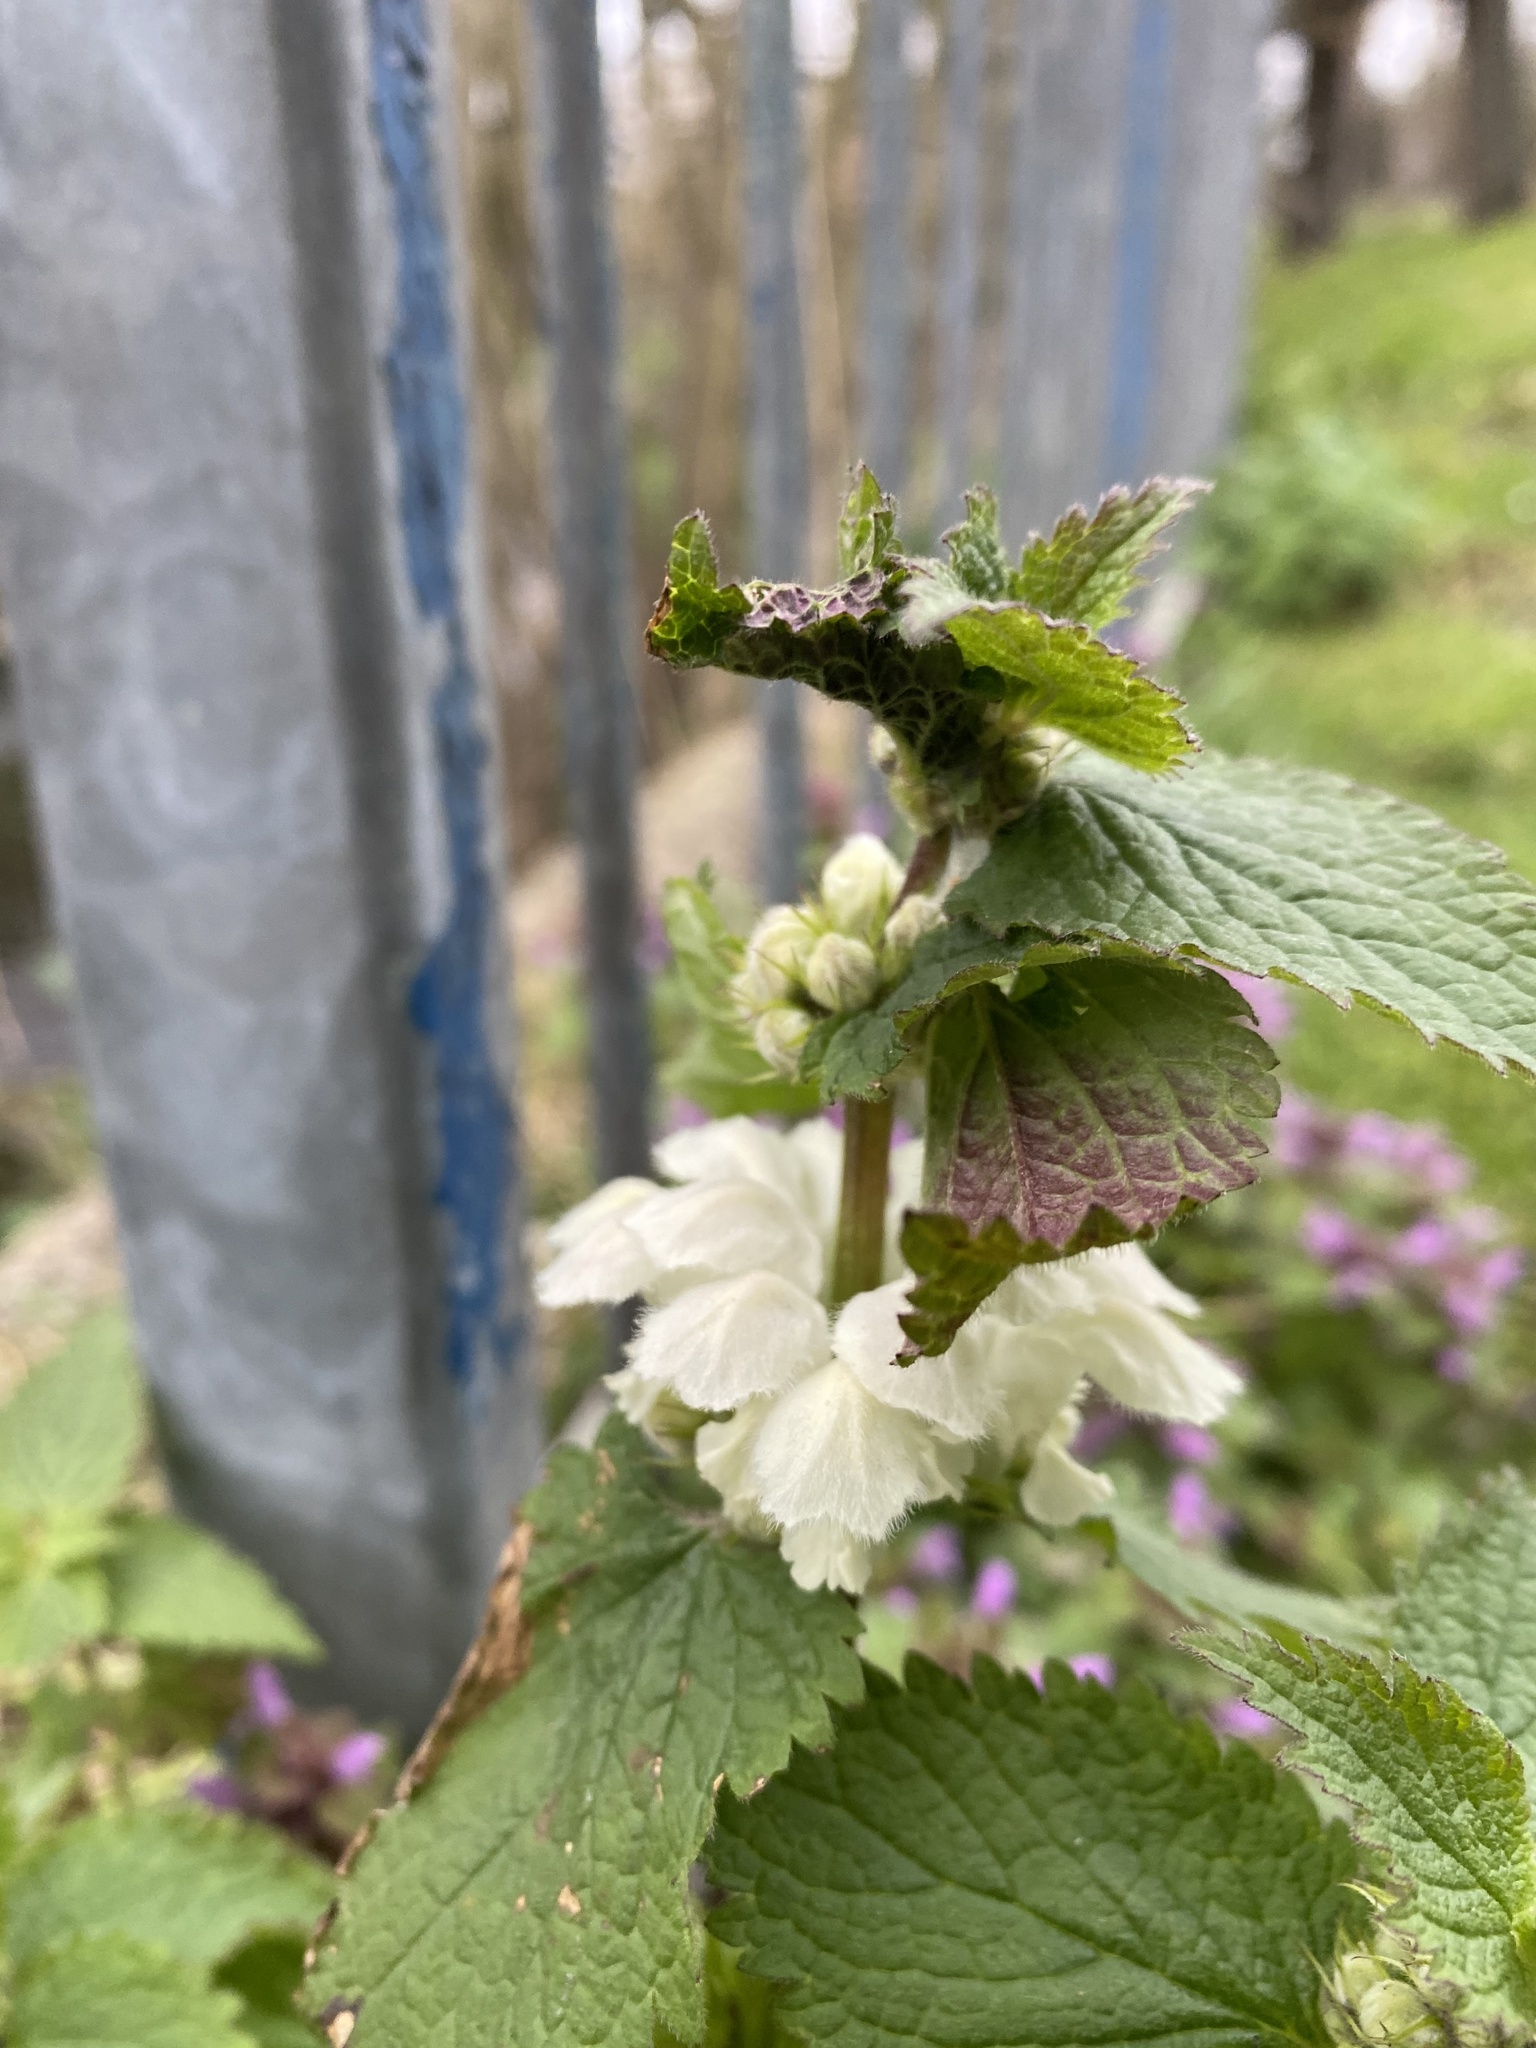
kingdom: Plantae
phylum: Tracheophyta
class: Magnoliopsida
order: Lamiales
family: Lamiaceae
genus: Lamium
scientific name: Lamium album
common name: White dead-nettle
